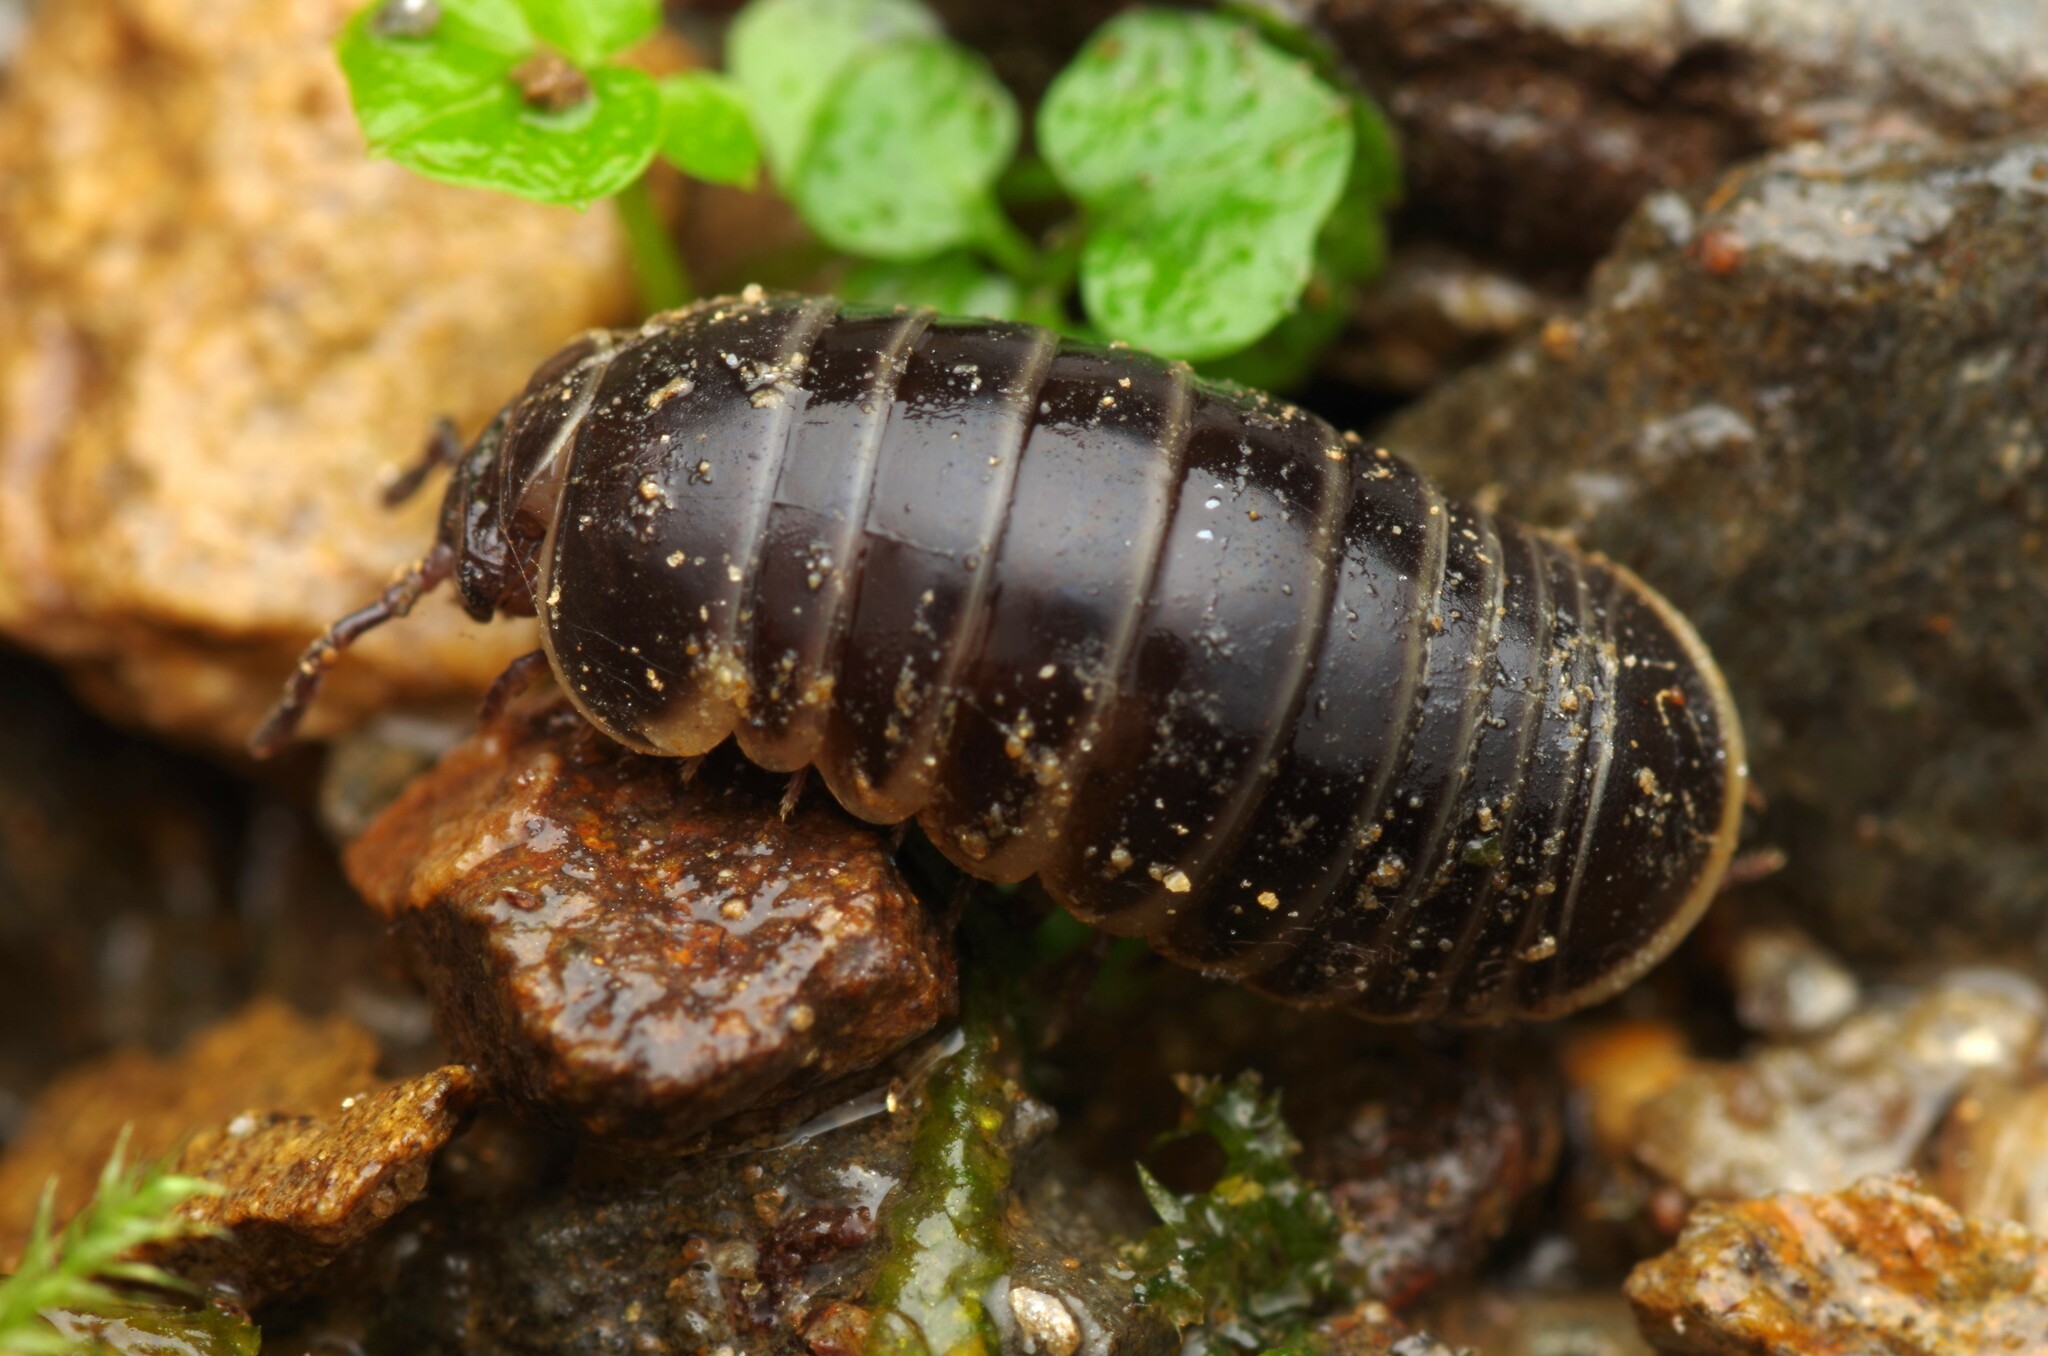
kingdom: Animalia
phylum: Arthropoda
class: Diplopoda
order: Glomerida
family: Glomeridae
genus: Glomeris
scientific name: Glomeris marginata
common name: Bordered pill millipede
